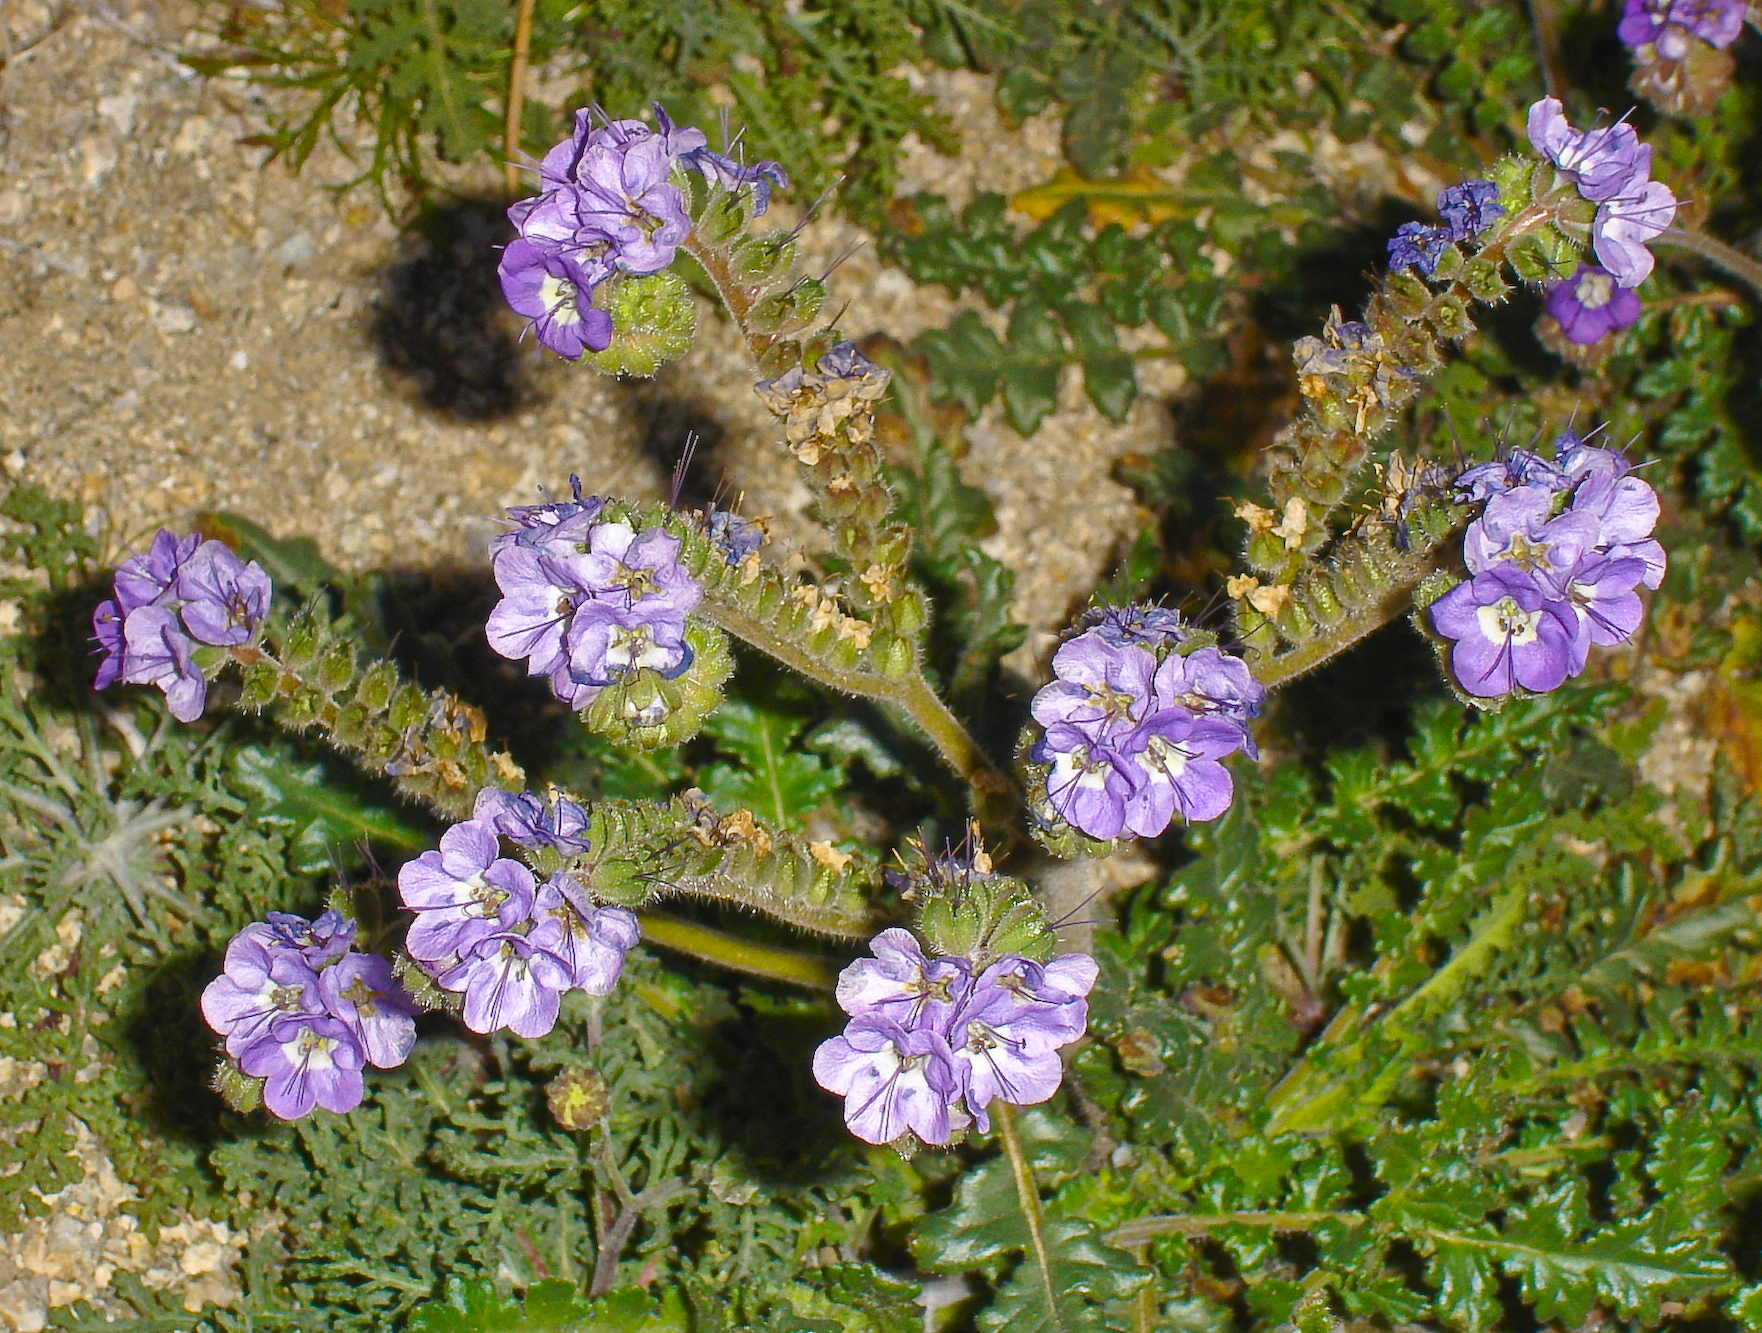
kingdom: Plantae
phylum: Tracheophyta
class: Magnoliopsida
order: Boraginales
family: Hydrophyllaceae
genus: Phacelia
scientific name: Phacelia crenulata
